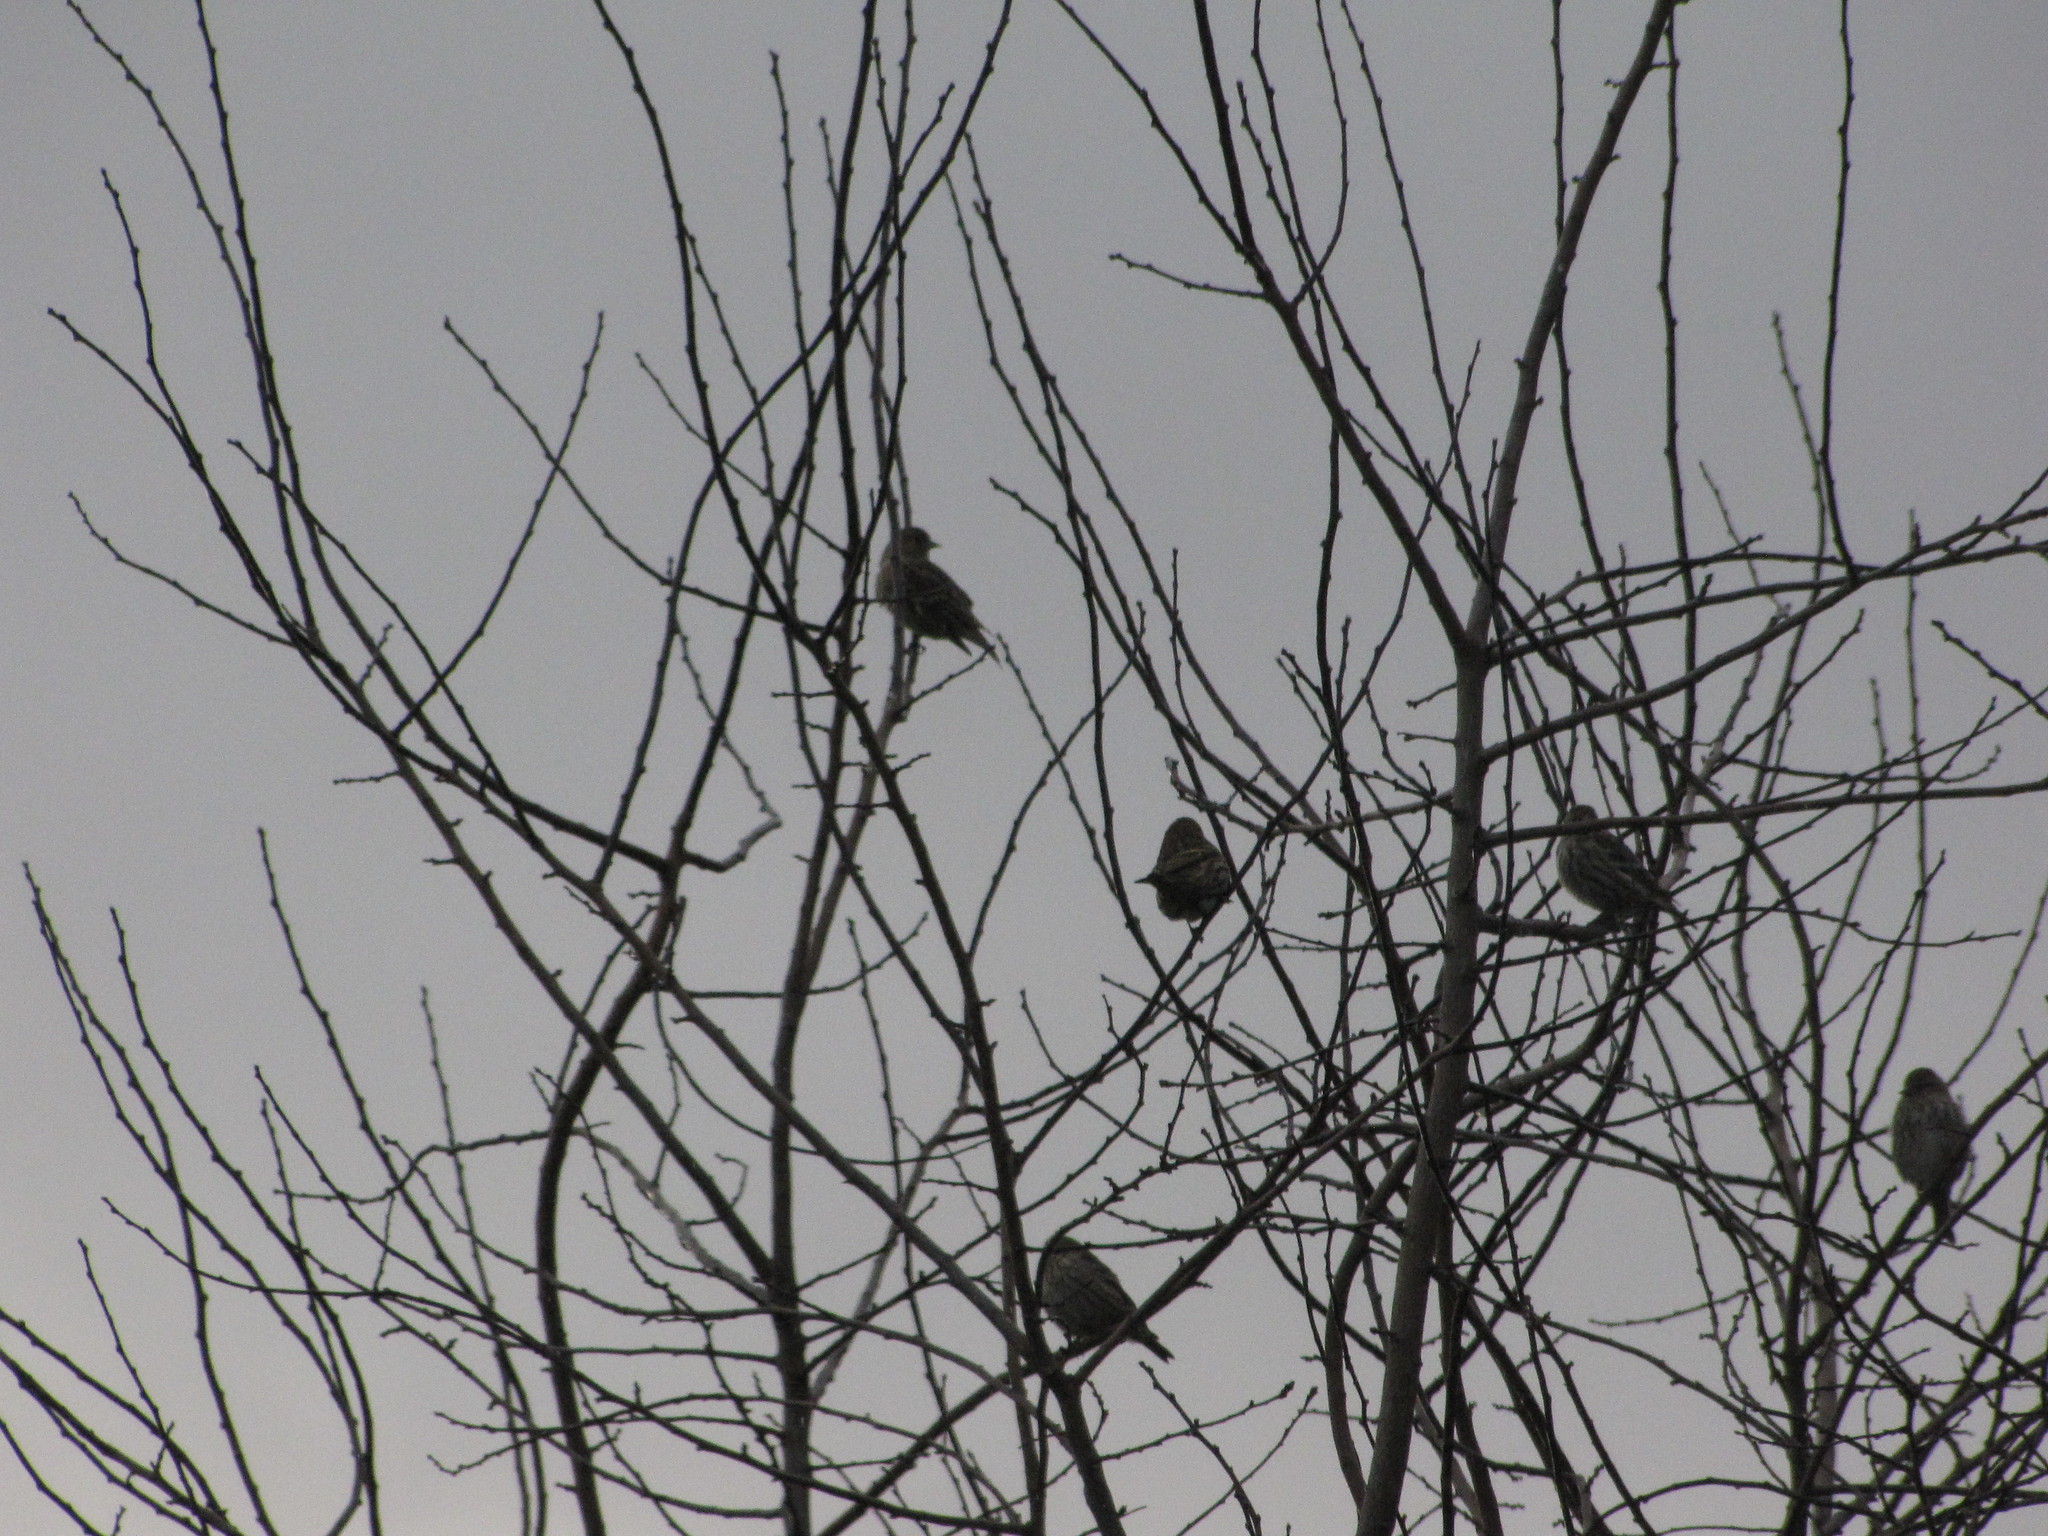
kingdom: Animalia
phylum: Chordata
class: Aves
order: Passeriformes
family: Fringillidae
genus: Spinus
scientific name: Spinus pinus
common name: Pine siskin
